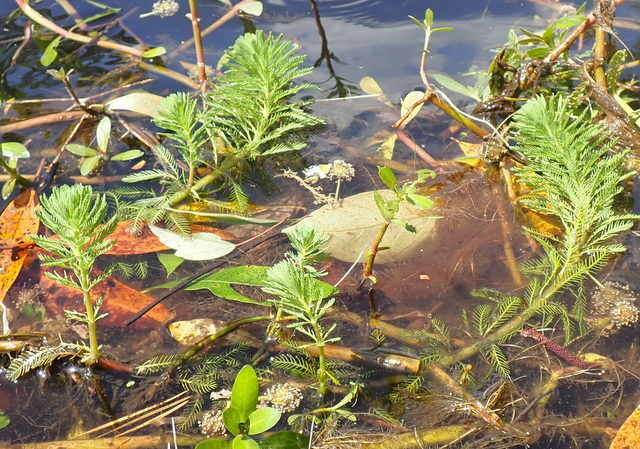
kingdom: Plantae
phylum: Tracheophyta
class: Magnoliopsida
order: Saxifragales
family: Haloragaceae
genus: Myriophyllum
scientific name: Myriophyllum aquaticum
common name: Parrot's feather
